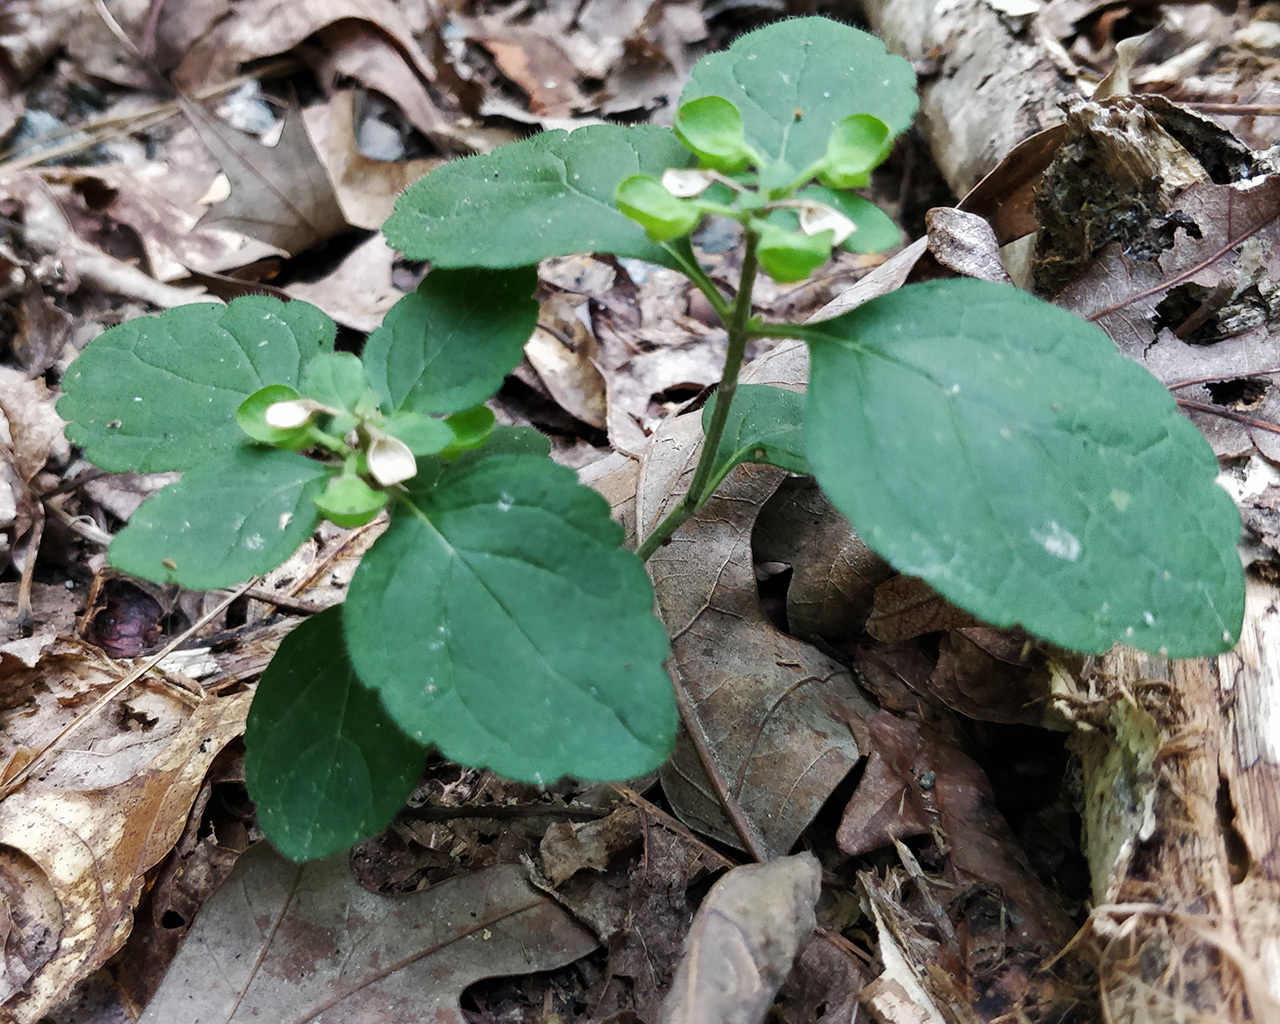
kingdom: Plantae
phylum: Tracheophyta
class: Magnoliopsida
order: Lamiales
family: Lamiaceae
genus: Scutellaria
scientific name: Scutellaria elliptica
